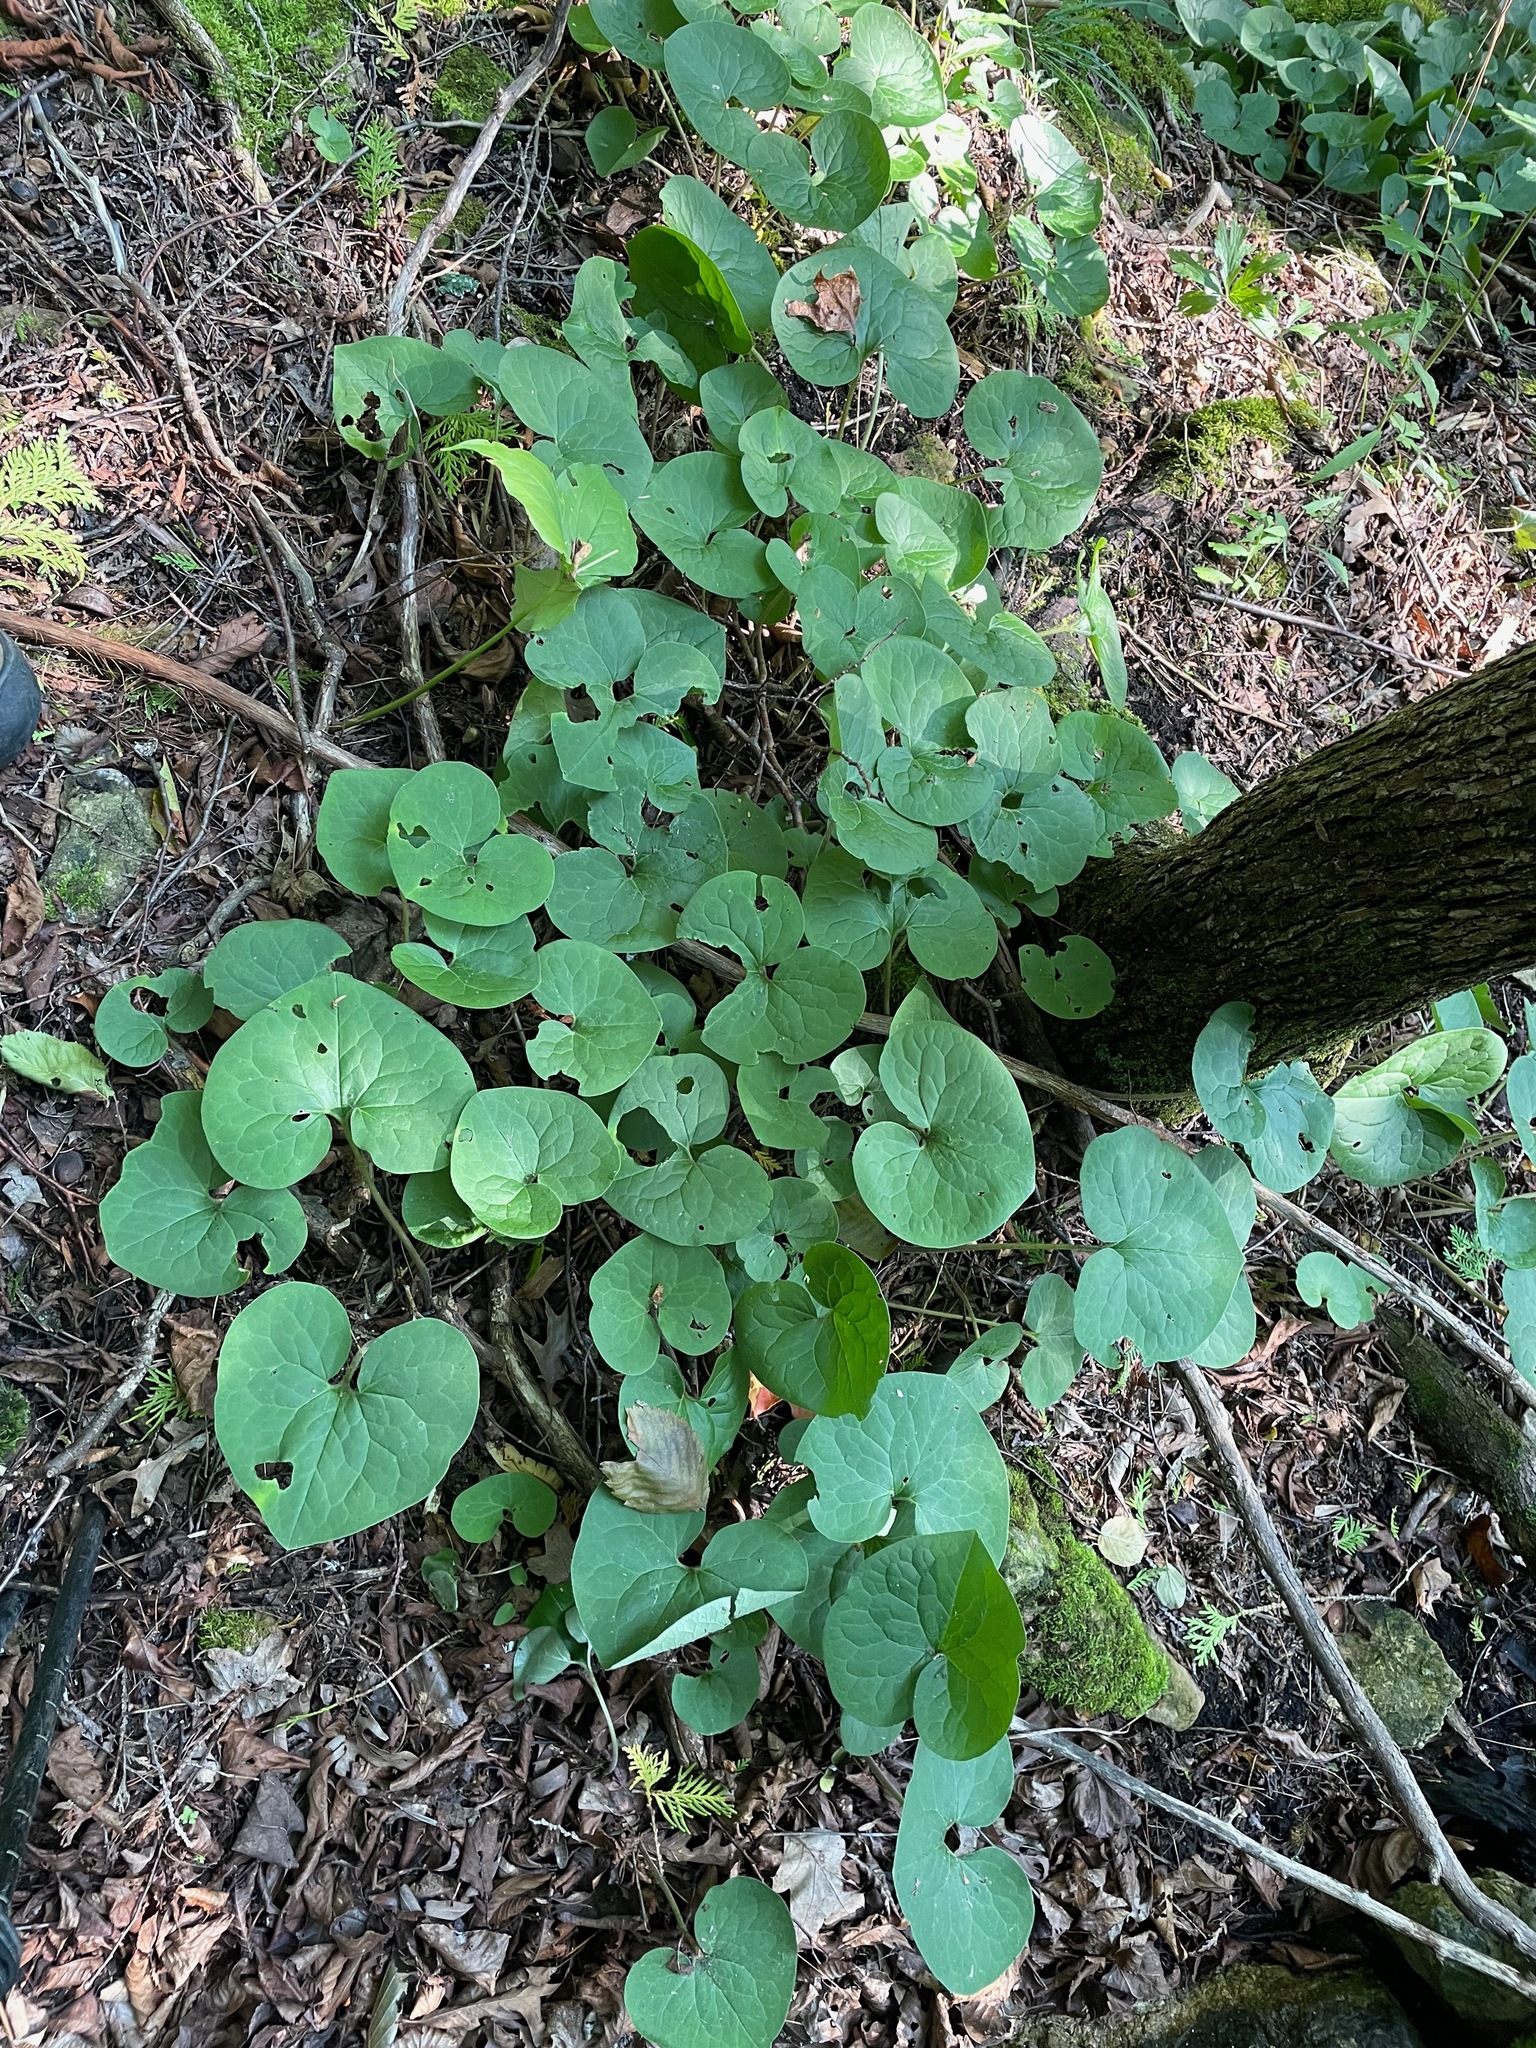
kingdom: Plantae
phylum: Tracheophyta
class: Magnoliopsida
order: Piperales
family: Aristolochiaceae
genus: Asarum
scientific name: Asarum canadense
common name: Wild ginger
